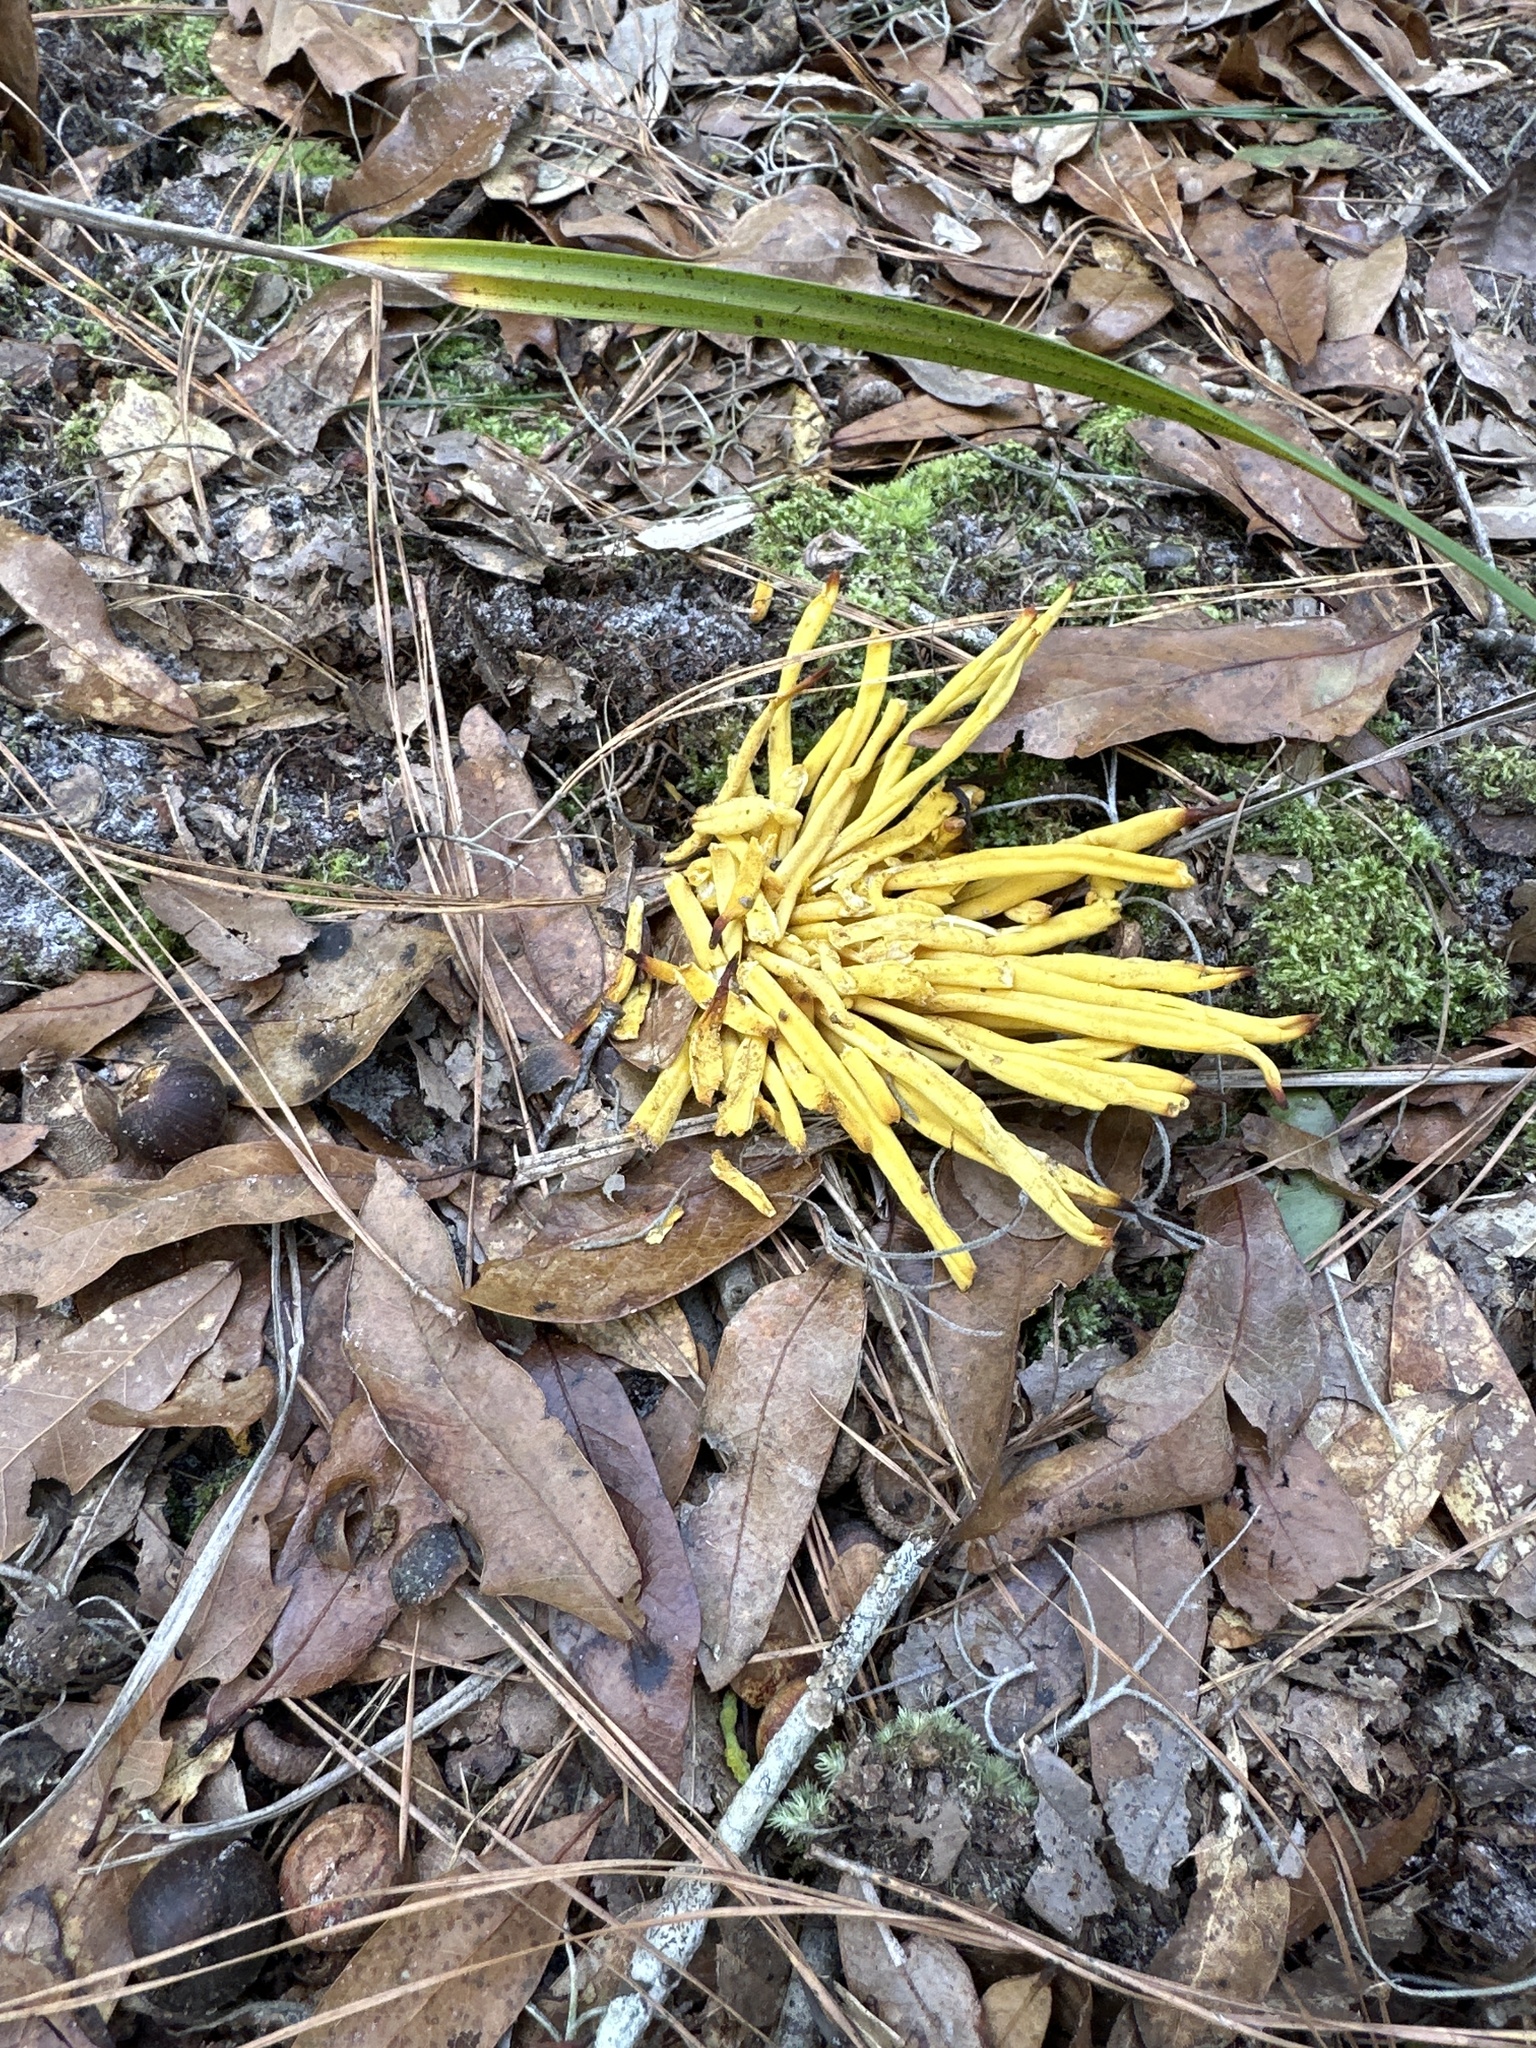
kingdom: Fungi
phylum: Basidiomycota
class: Agaricomycetes
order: Agaricales
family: Clavariaceae
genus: Clavulinopsis
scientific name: Clavulinopsis fusiformis
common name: Golden spindles
